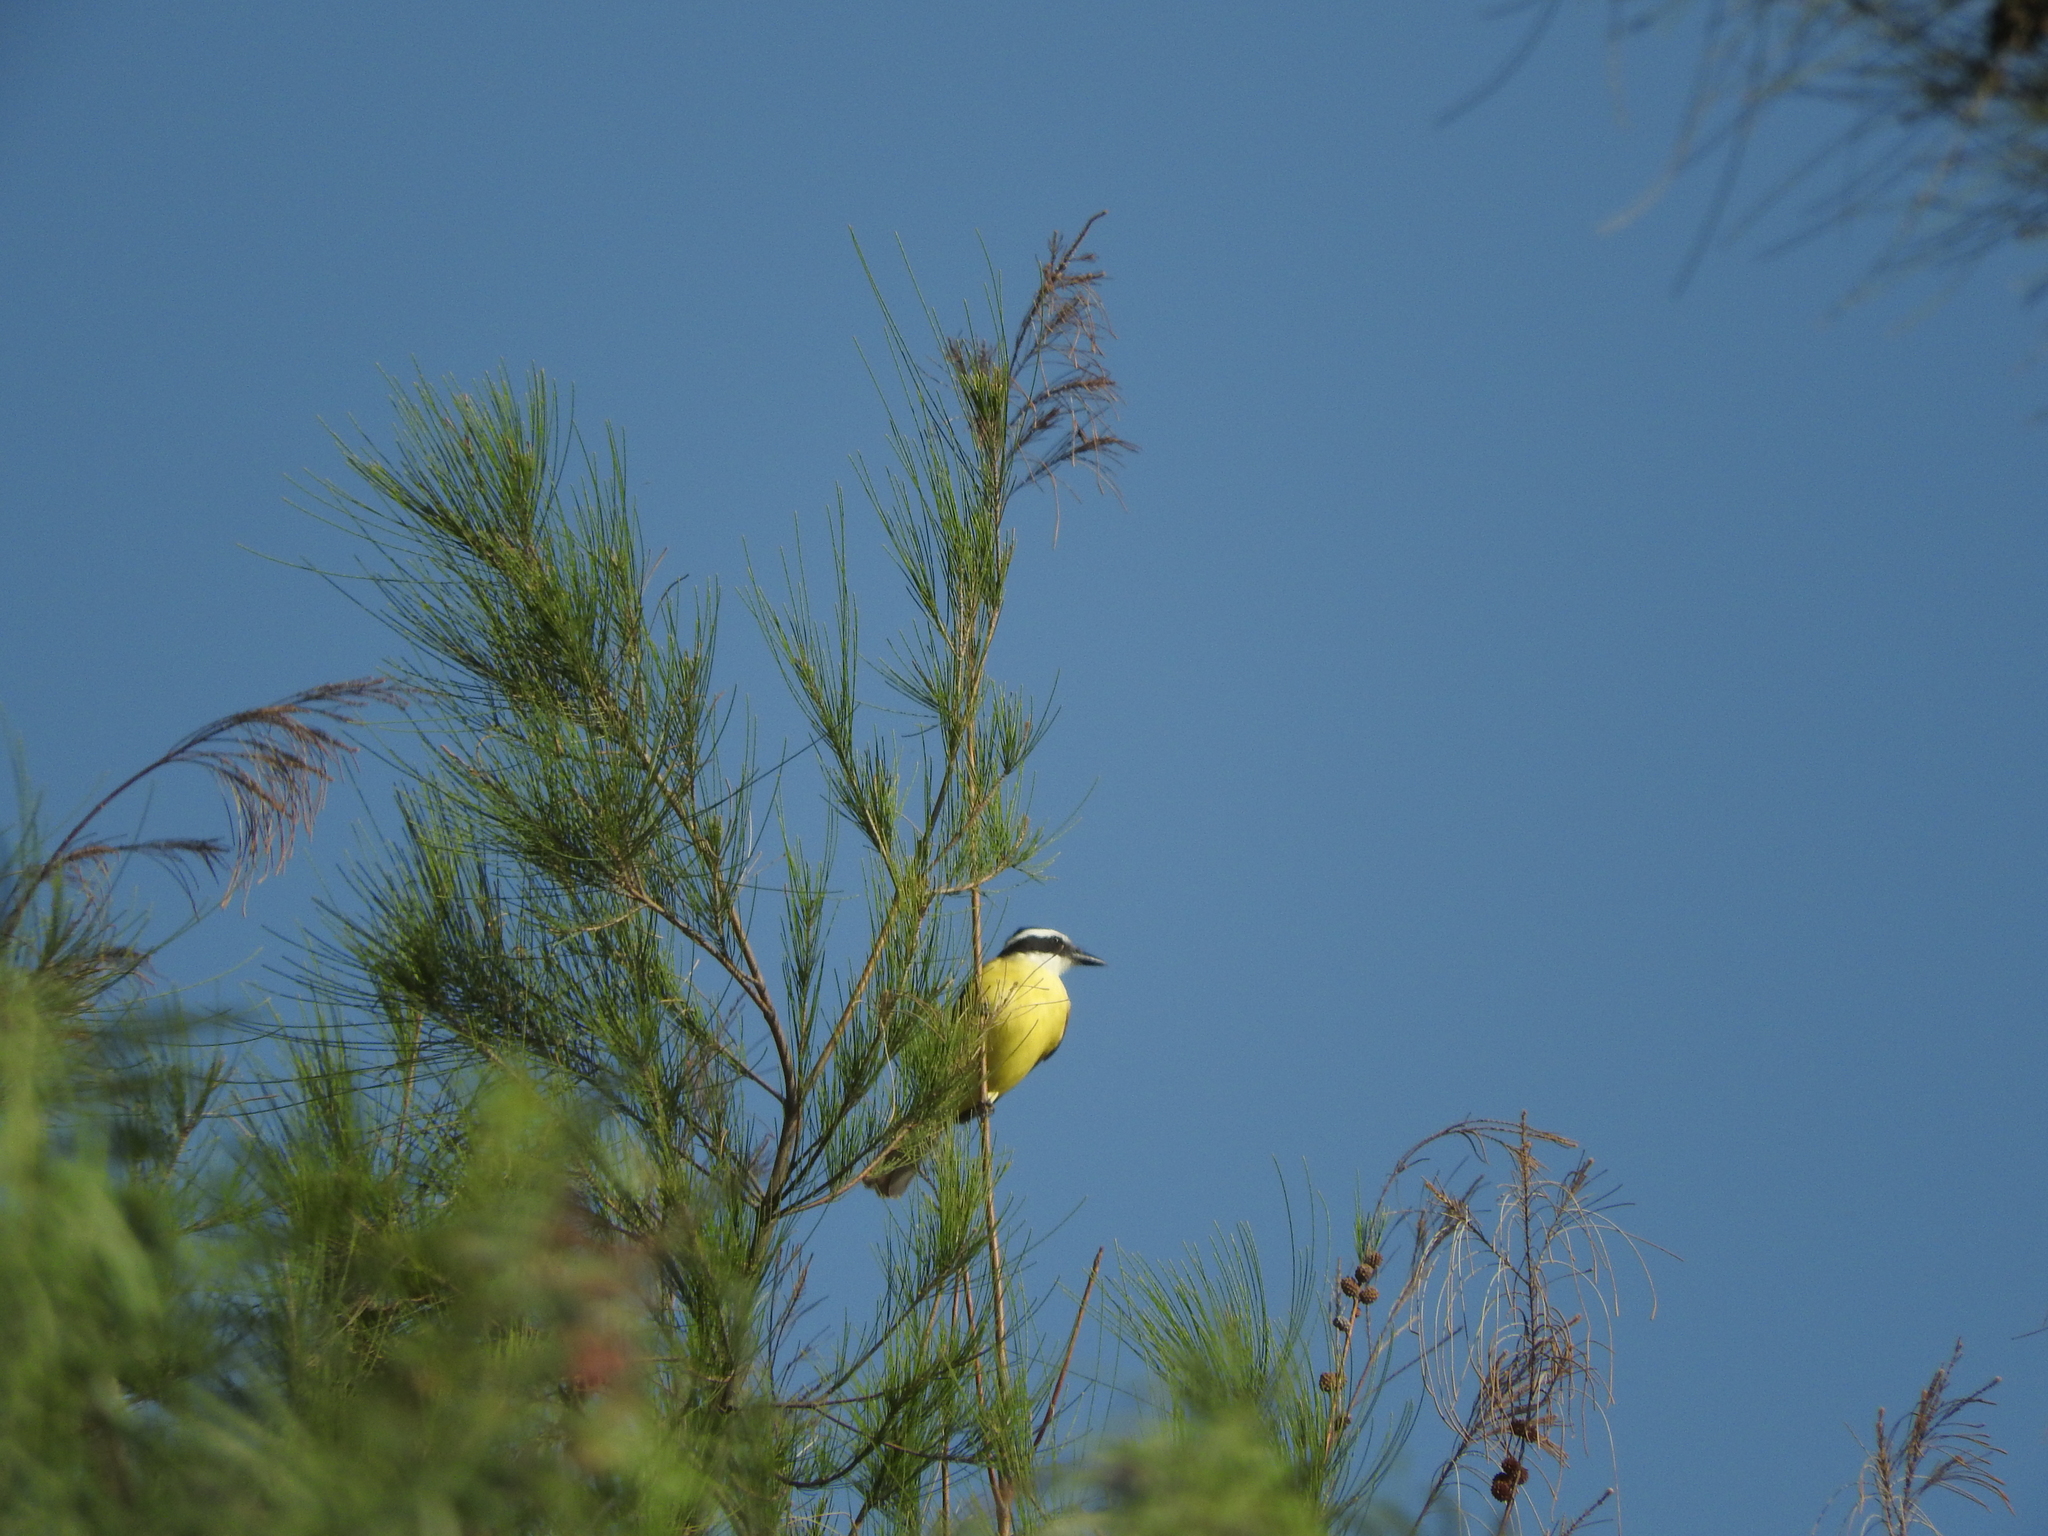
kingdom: Animalia
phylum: Chordata
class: Aves
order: Passeriformes
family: Tyrannidae
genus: Pitangus
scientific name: Pitangus sulphuratus
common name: Great kiskadee
